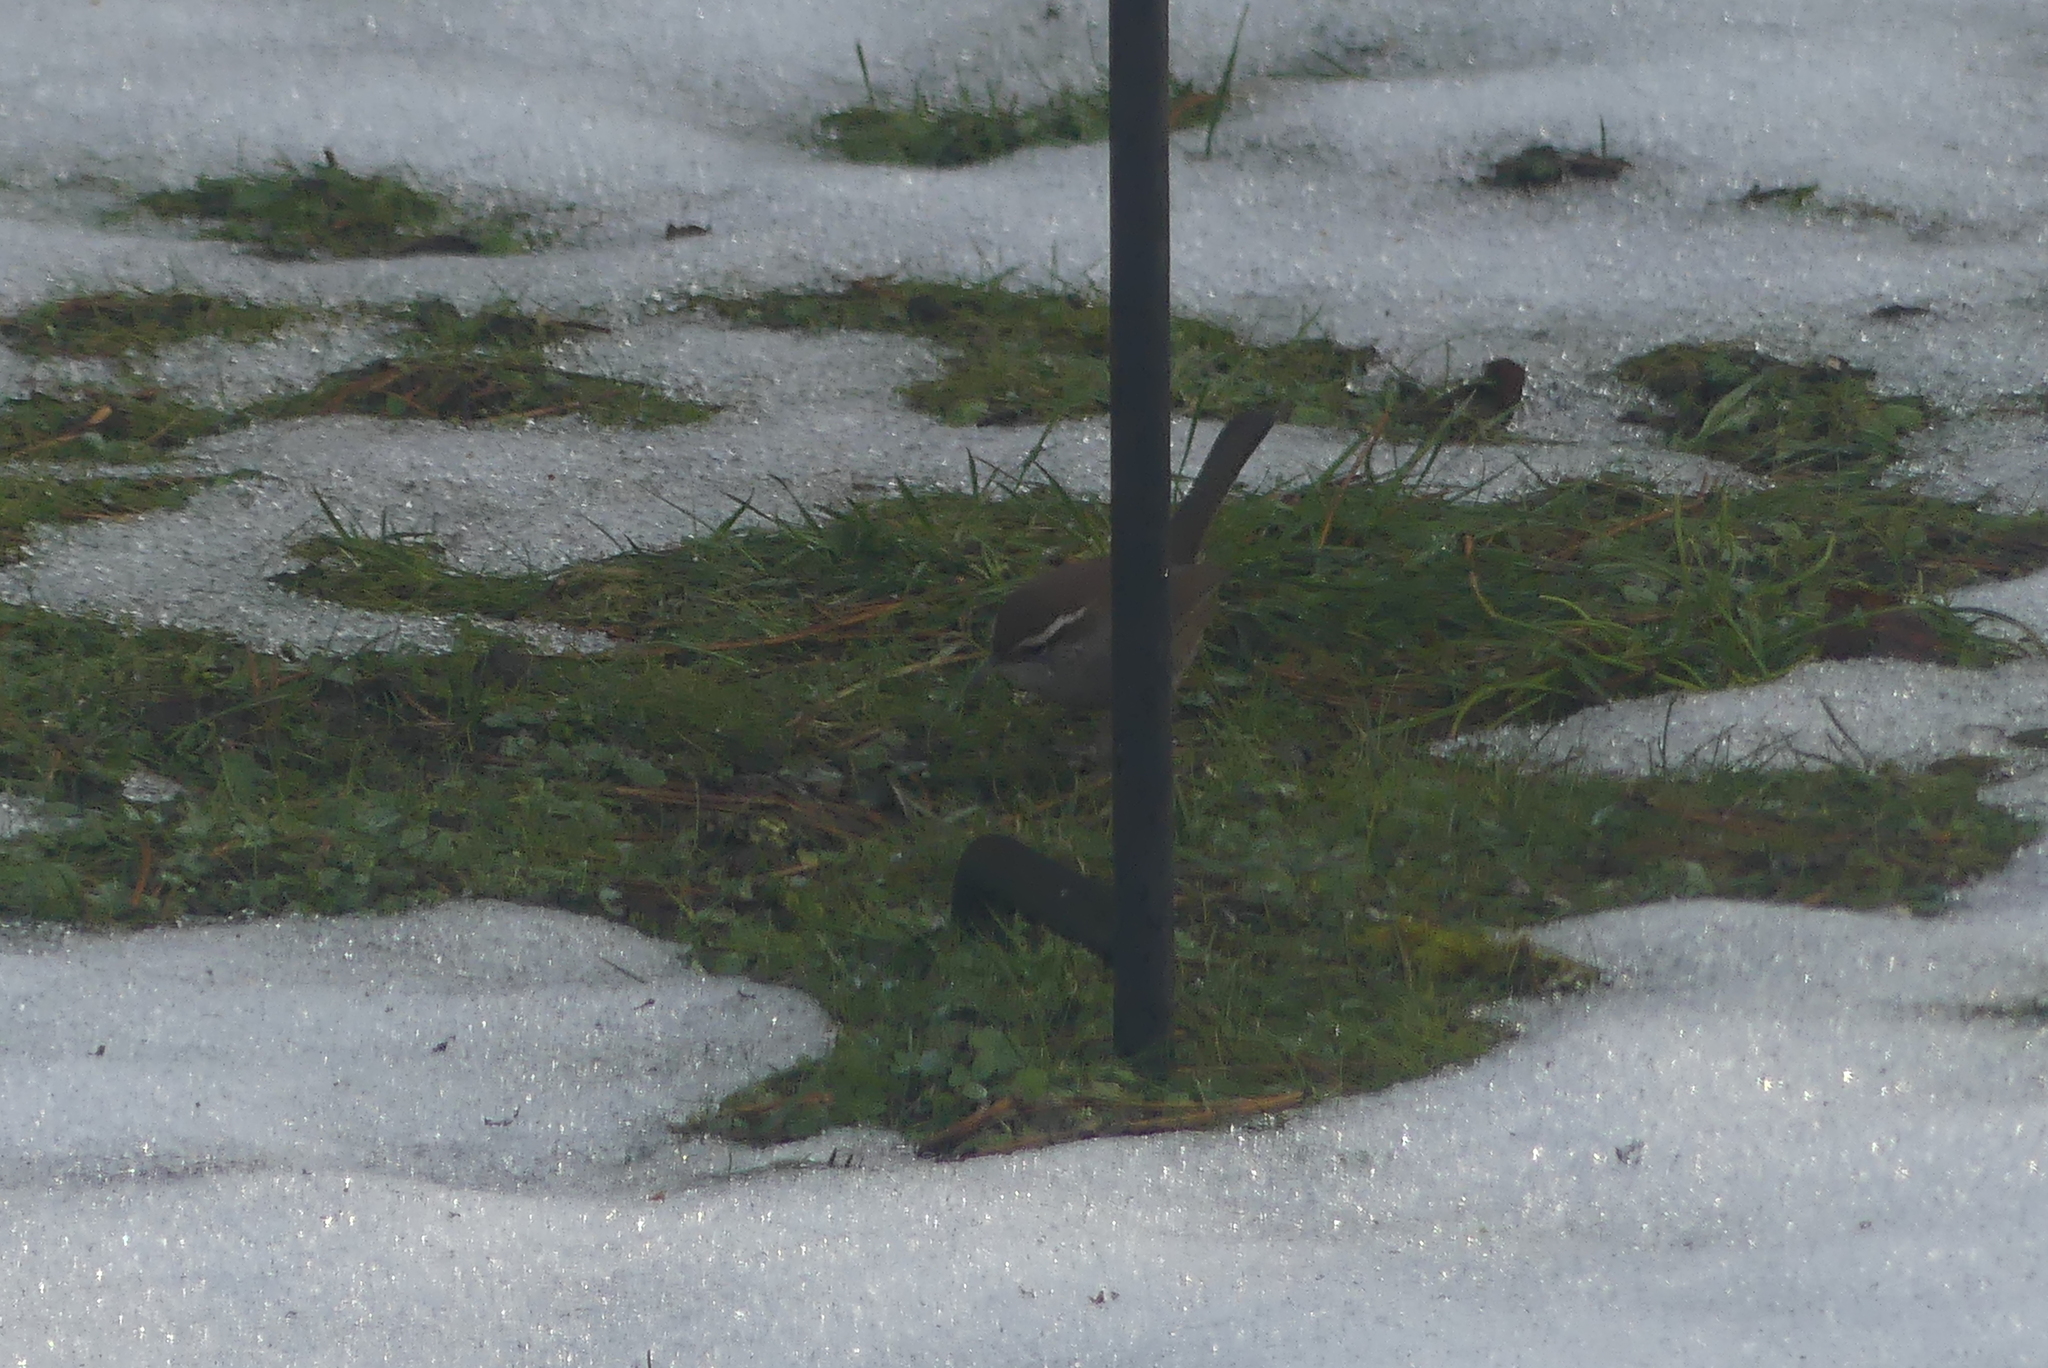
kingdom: Animalia
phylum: Chordata
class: Aves
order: Passeriformes
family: Troglodytidae
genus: Thryomanes
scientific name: Thryomanes bewickii
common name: Bewick's wren
